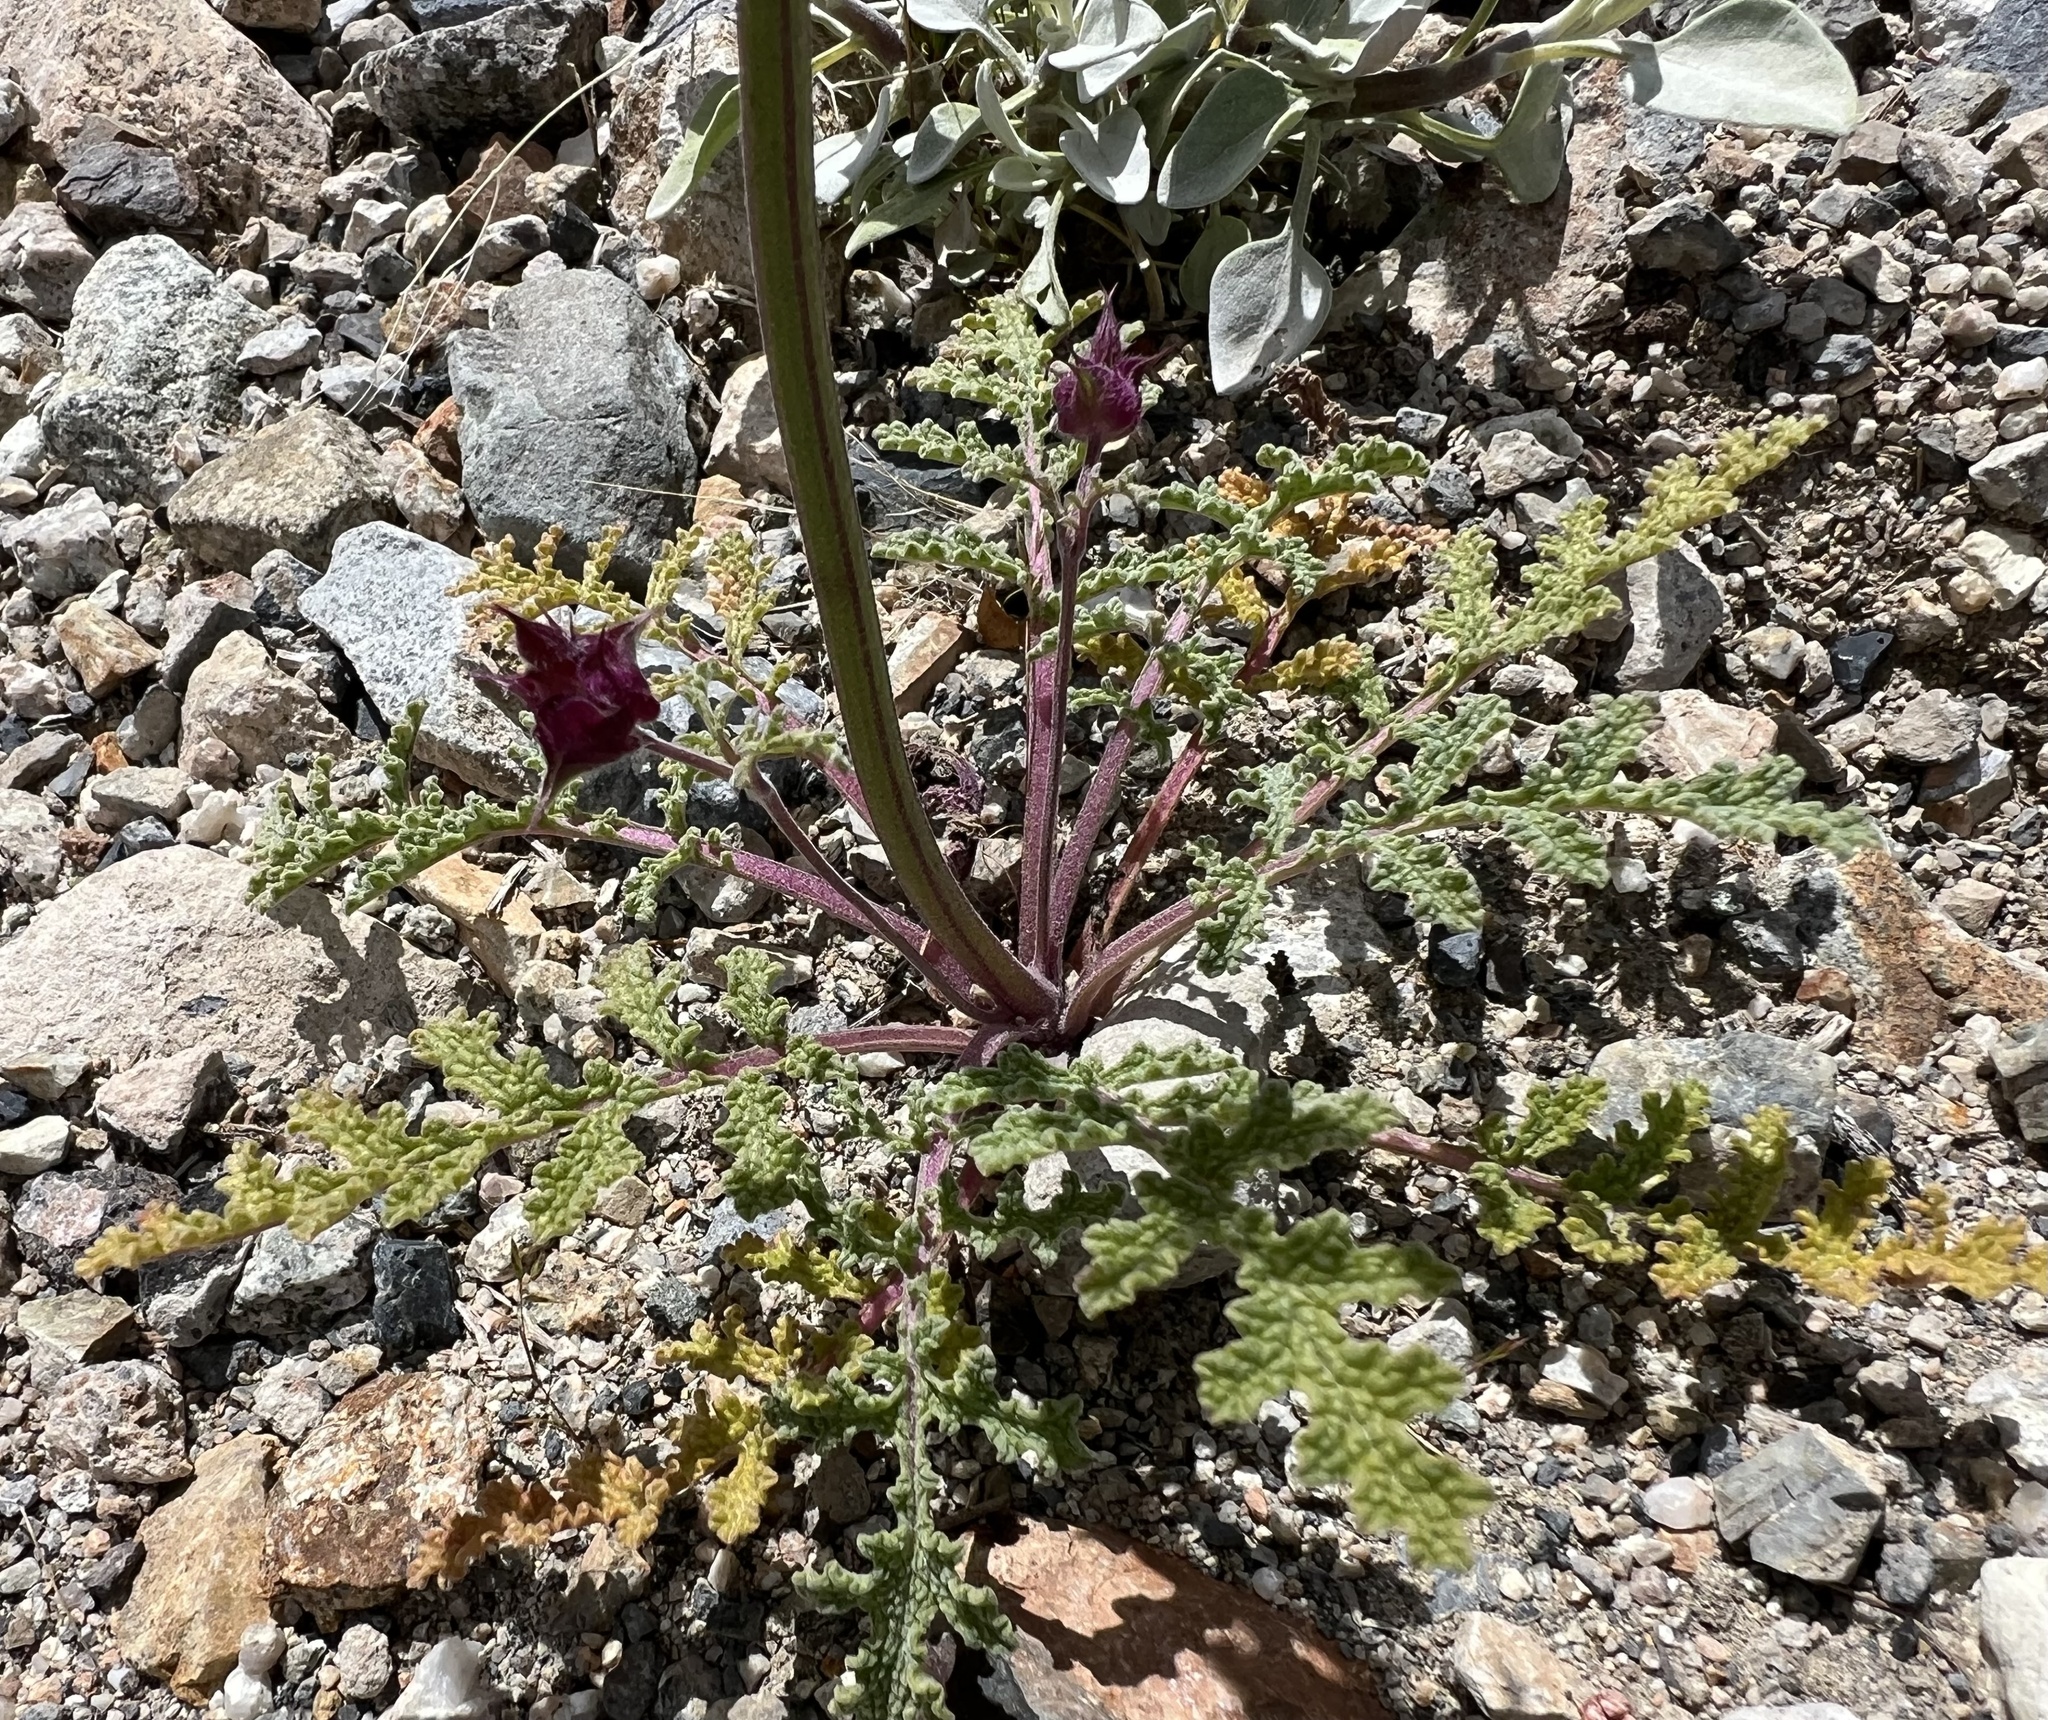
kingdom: Plantae
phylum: Tracheophyta
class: Magnoliopsida
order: Lamiales
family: Lamiaceae
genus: Salvia
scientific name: Salvia columbariae
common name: Chia
